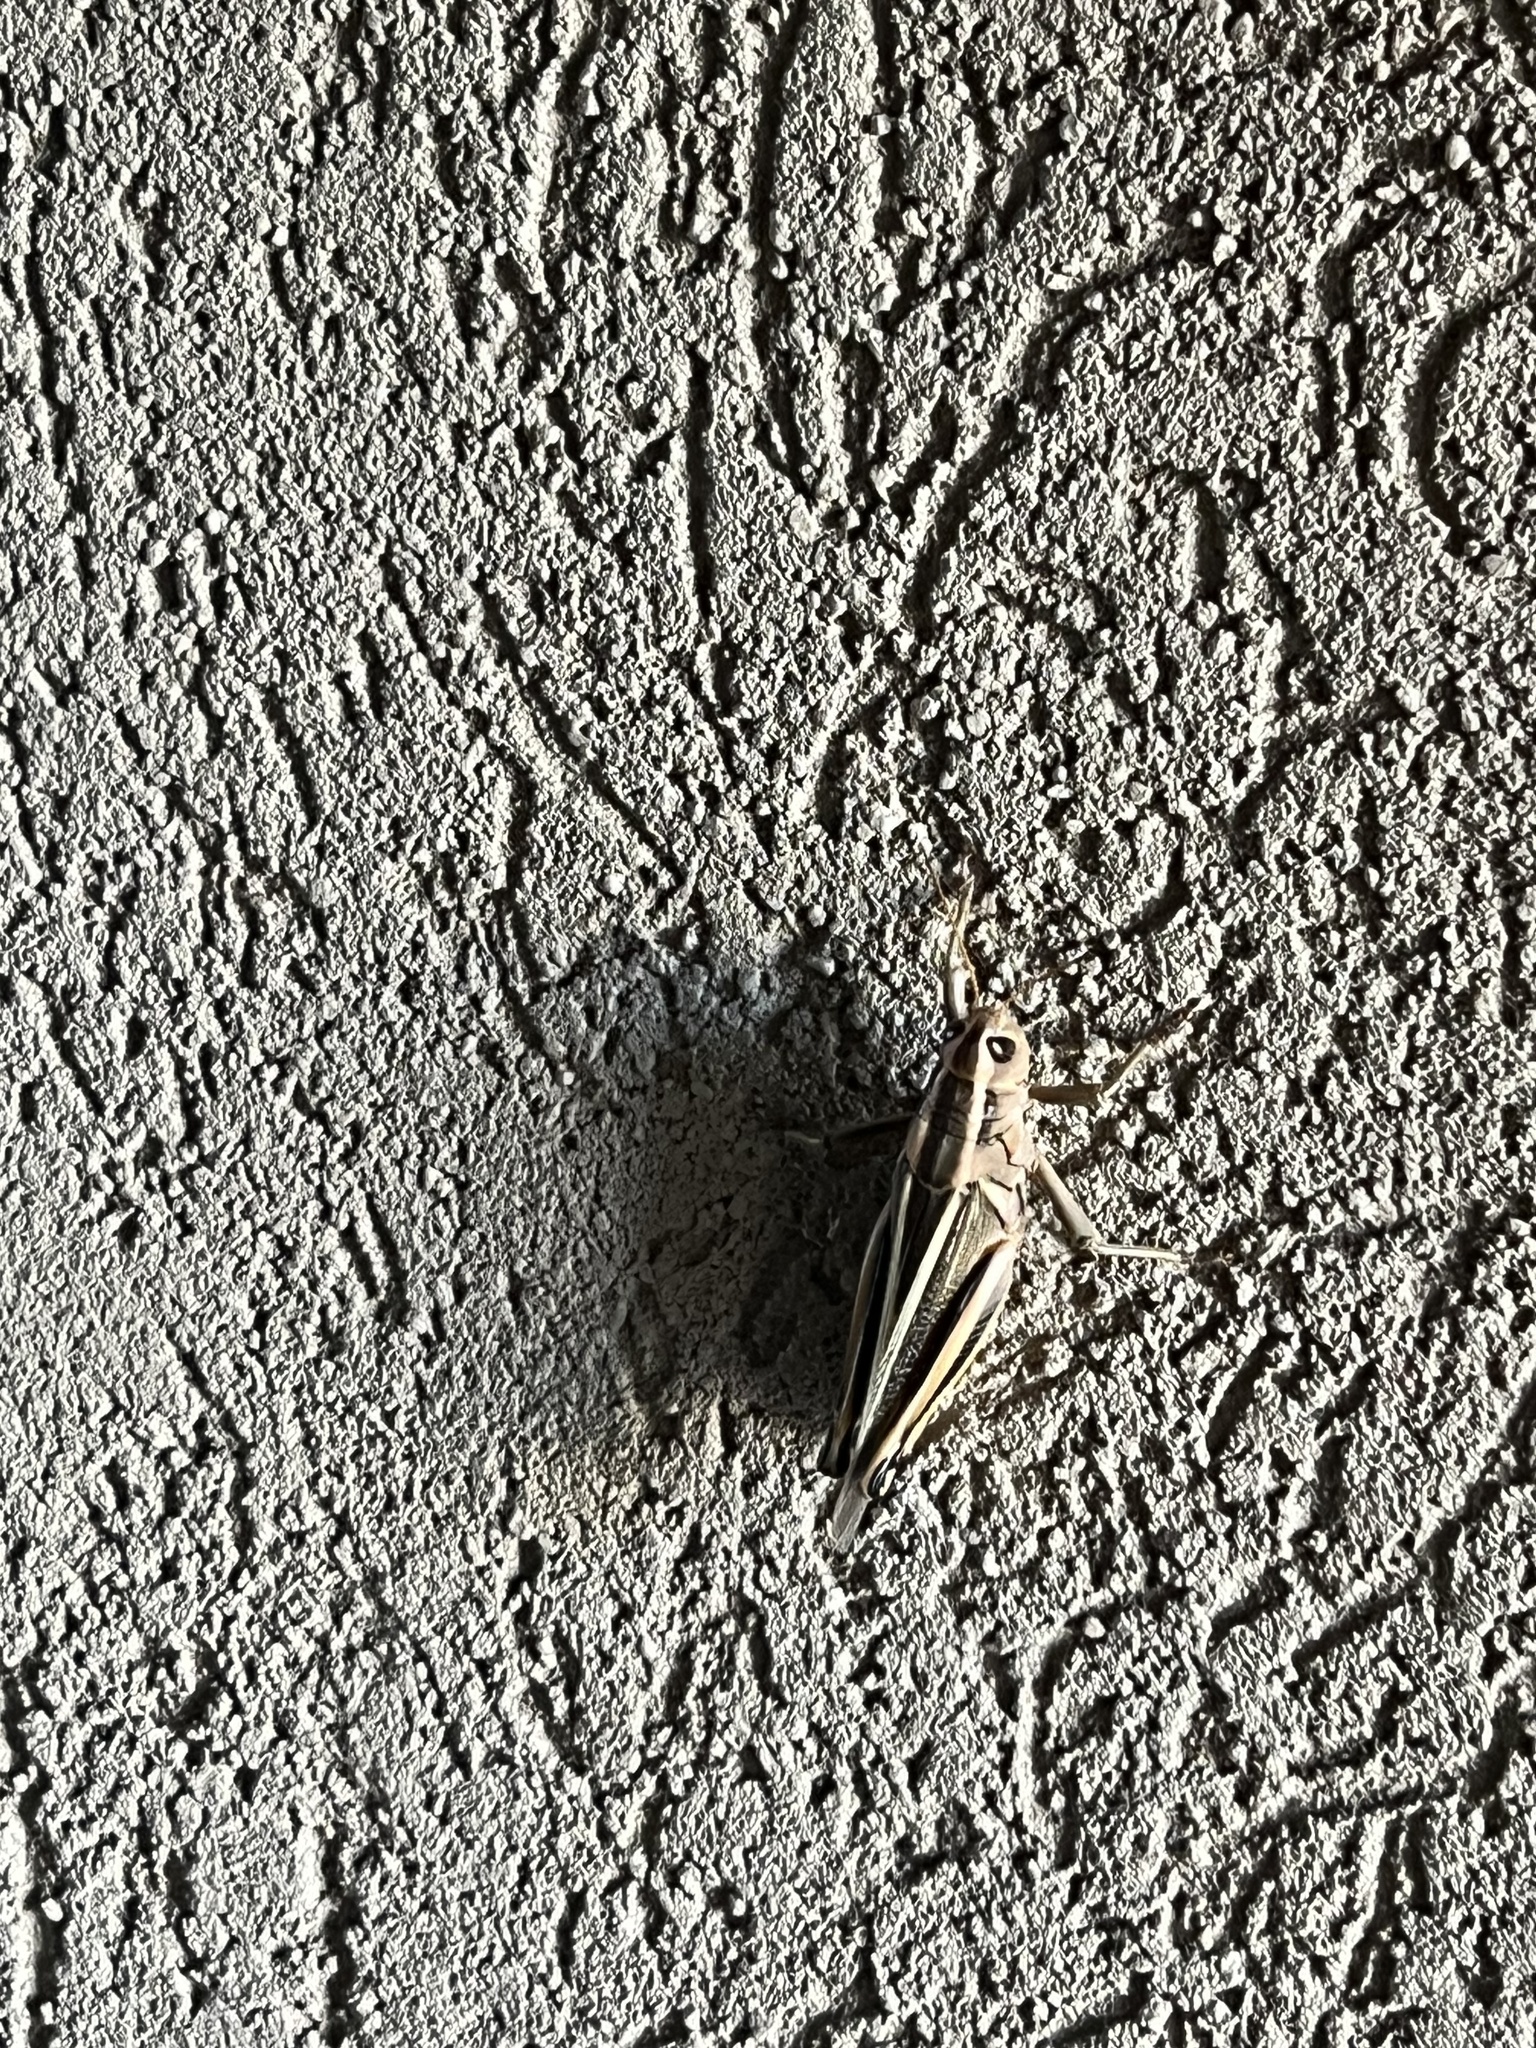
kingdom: Animalia
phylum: Arthropoda
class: Insecta
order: Orthoptera
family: Acrididae
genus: Melanoplus
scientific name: Melanoplus bivittatus
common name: Two-striped grasshopper
